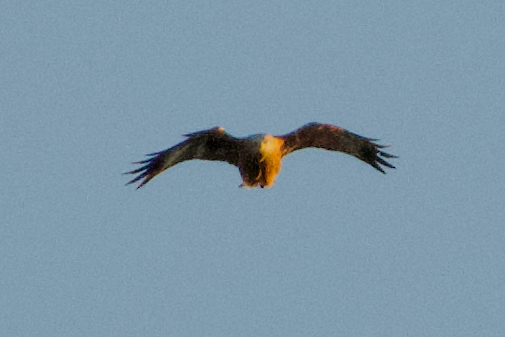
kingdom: Animalia
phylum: Chordata
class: Aves
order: Accipitriformes
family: Accipitridae
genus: Milvus
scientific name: Milvus milvus
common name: Red kite
